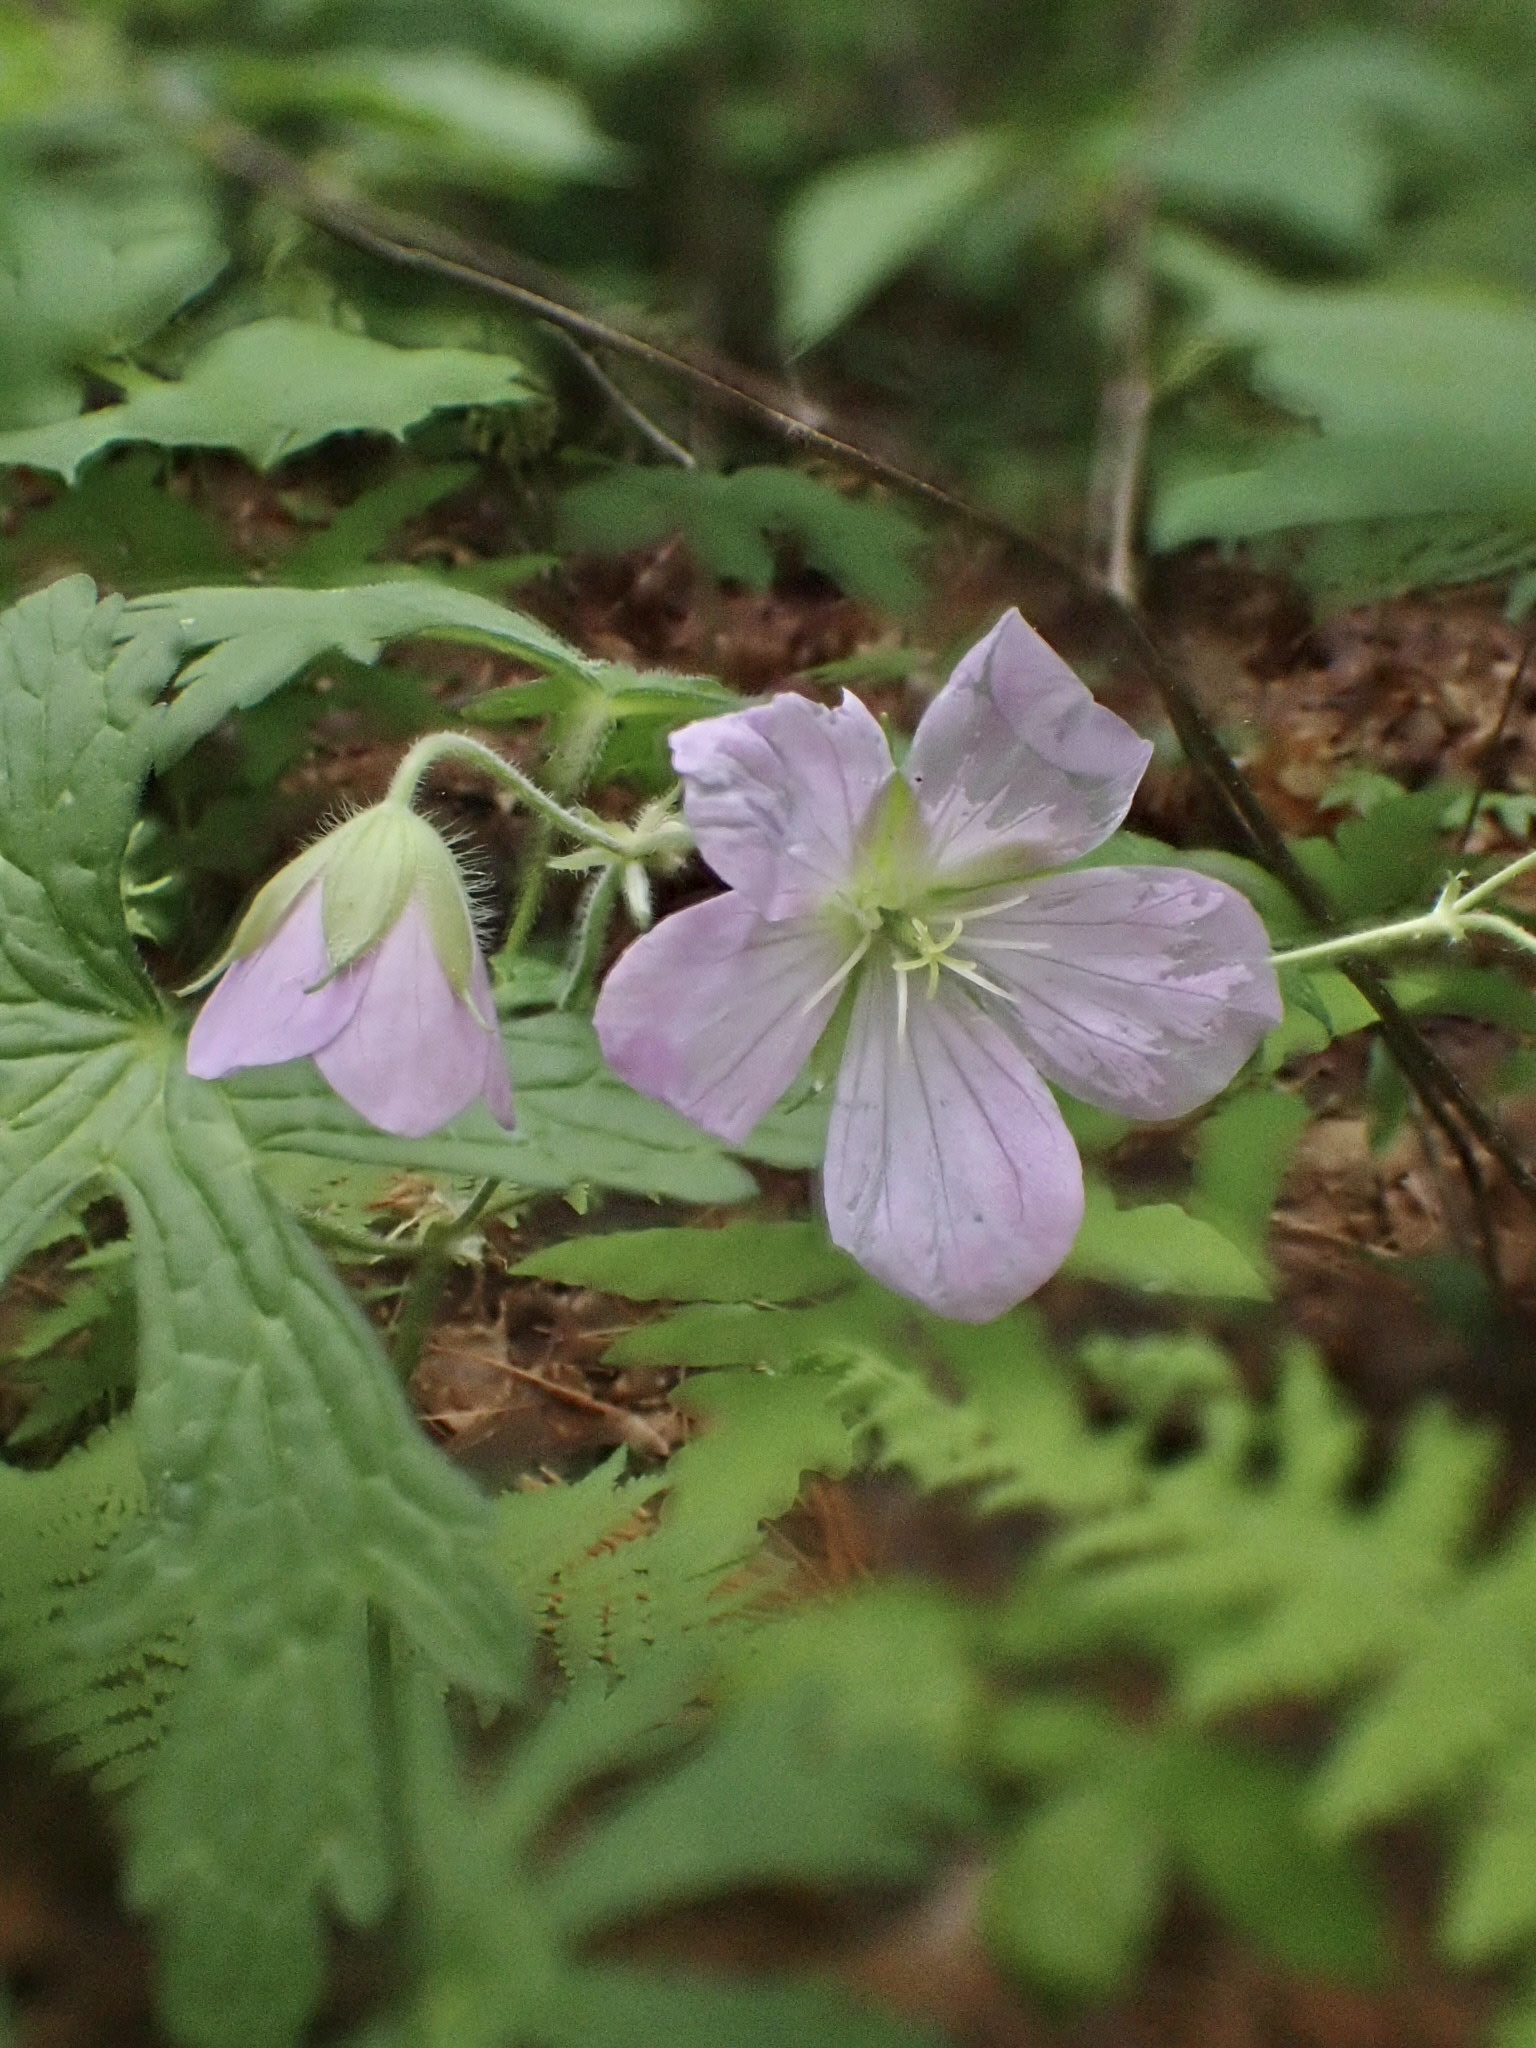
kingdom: Plantae
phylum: Tracheophyta
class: Magnoliopsida
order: Geraniales
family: Geraniaceae
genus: Geranium
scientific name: Geranium maculatum
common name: Spotted geranium
